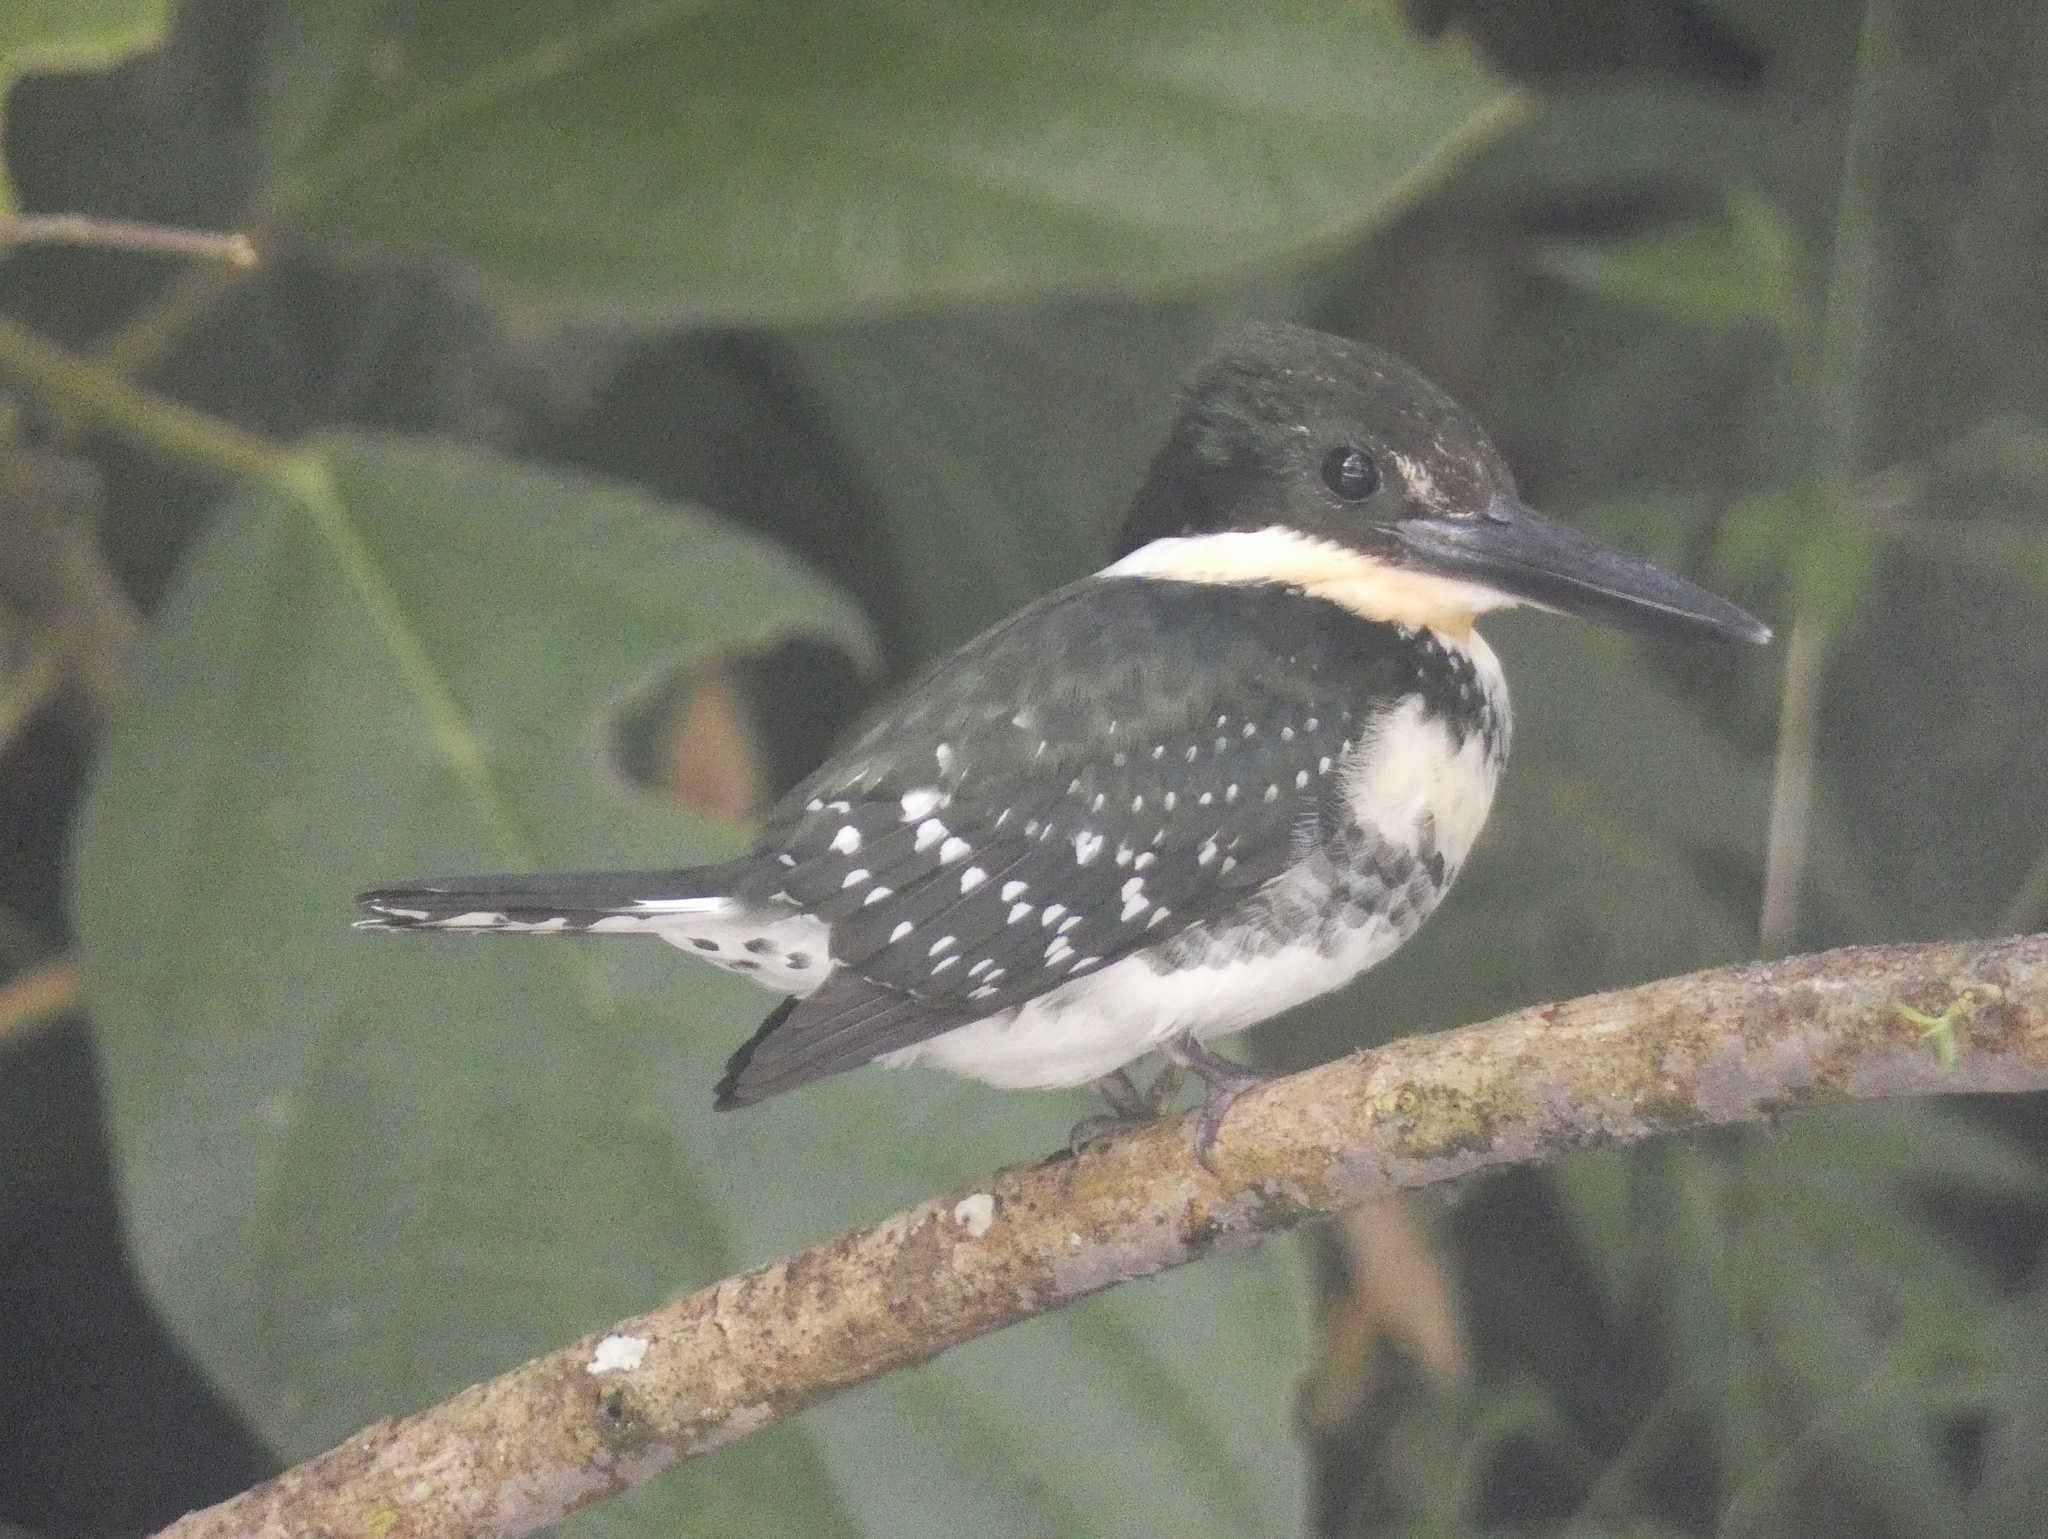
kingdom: Animalia
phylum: Chordata
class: Aves
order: Coraciiformes
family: Alcedinidae
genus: Chloroceryle
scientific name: Chloroceryle americana
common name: Green kingfisher
